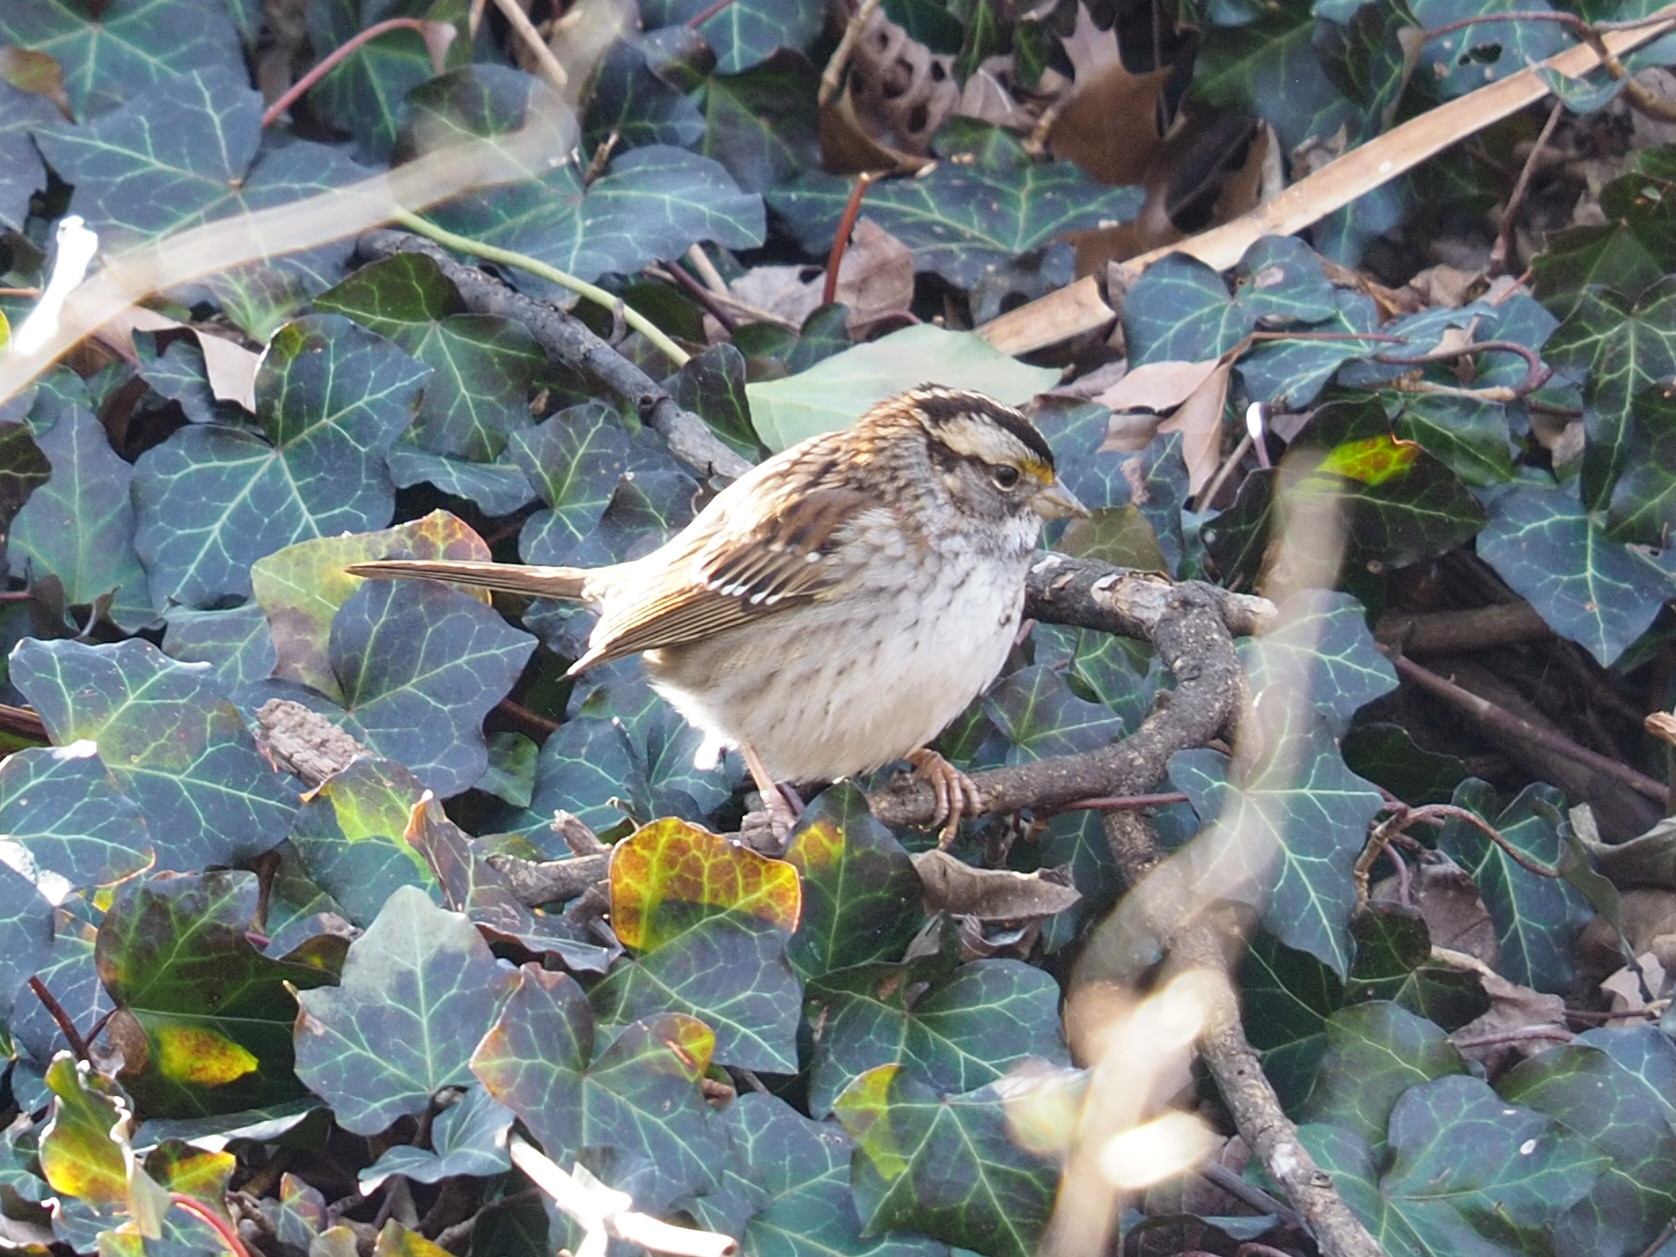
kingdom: Animalia
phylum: Chordata
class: Aves
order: Passeriformes
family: Passerellidae
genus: Zonotrichia
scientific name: Zonotrichia albicollis
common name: White-throated sparrow
